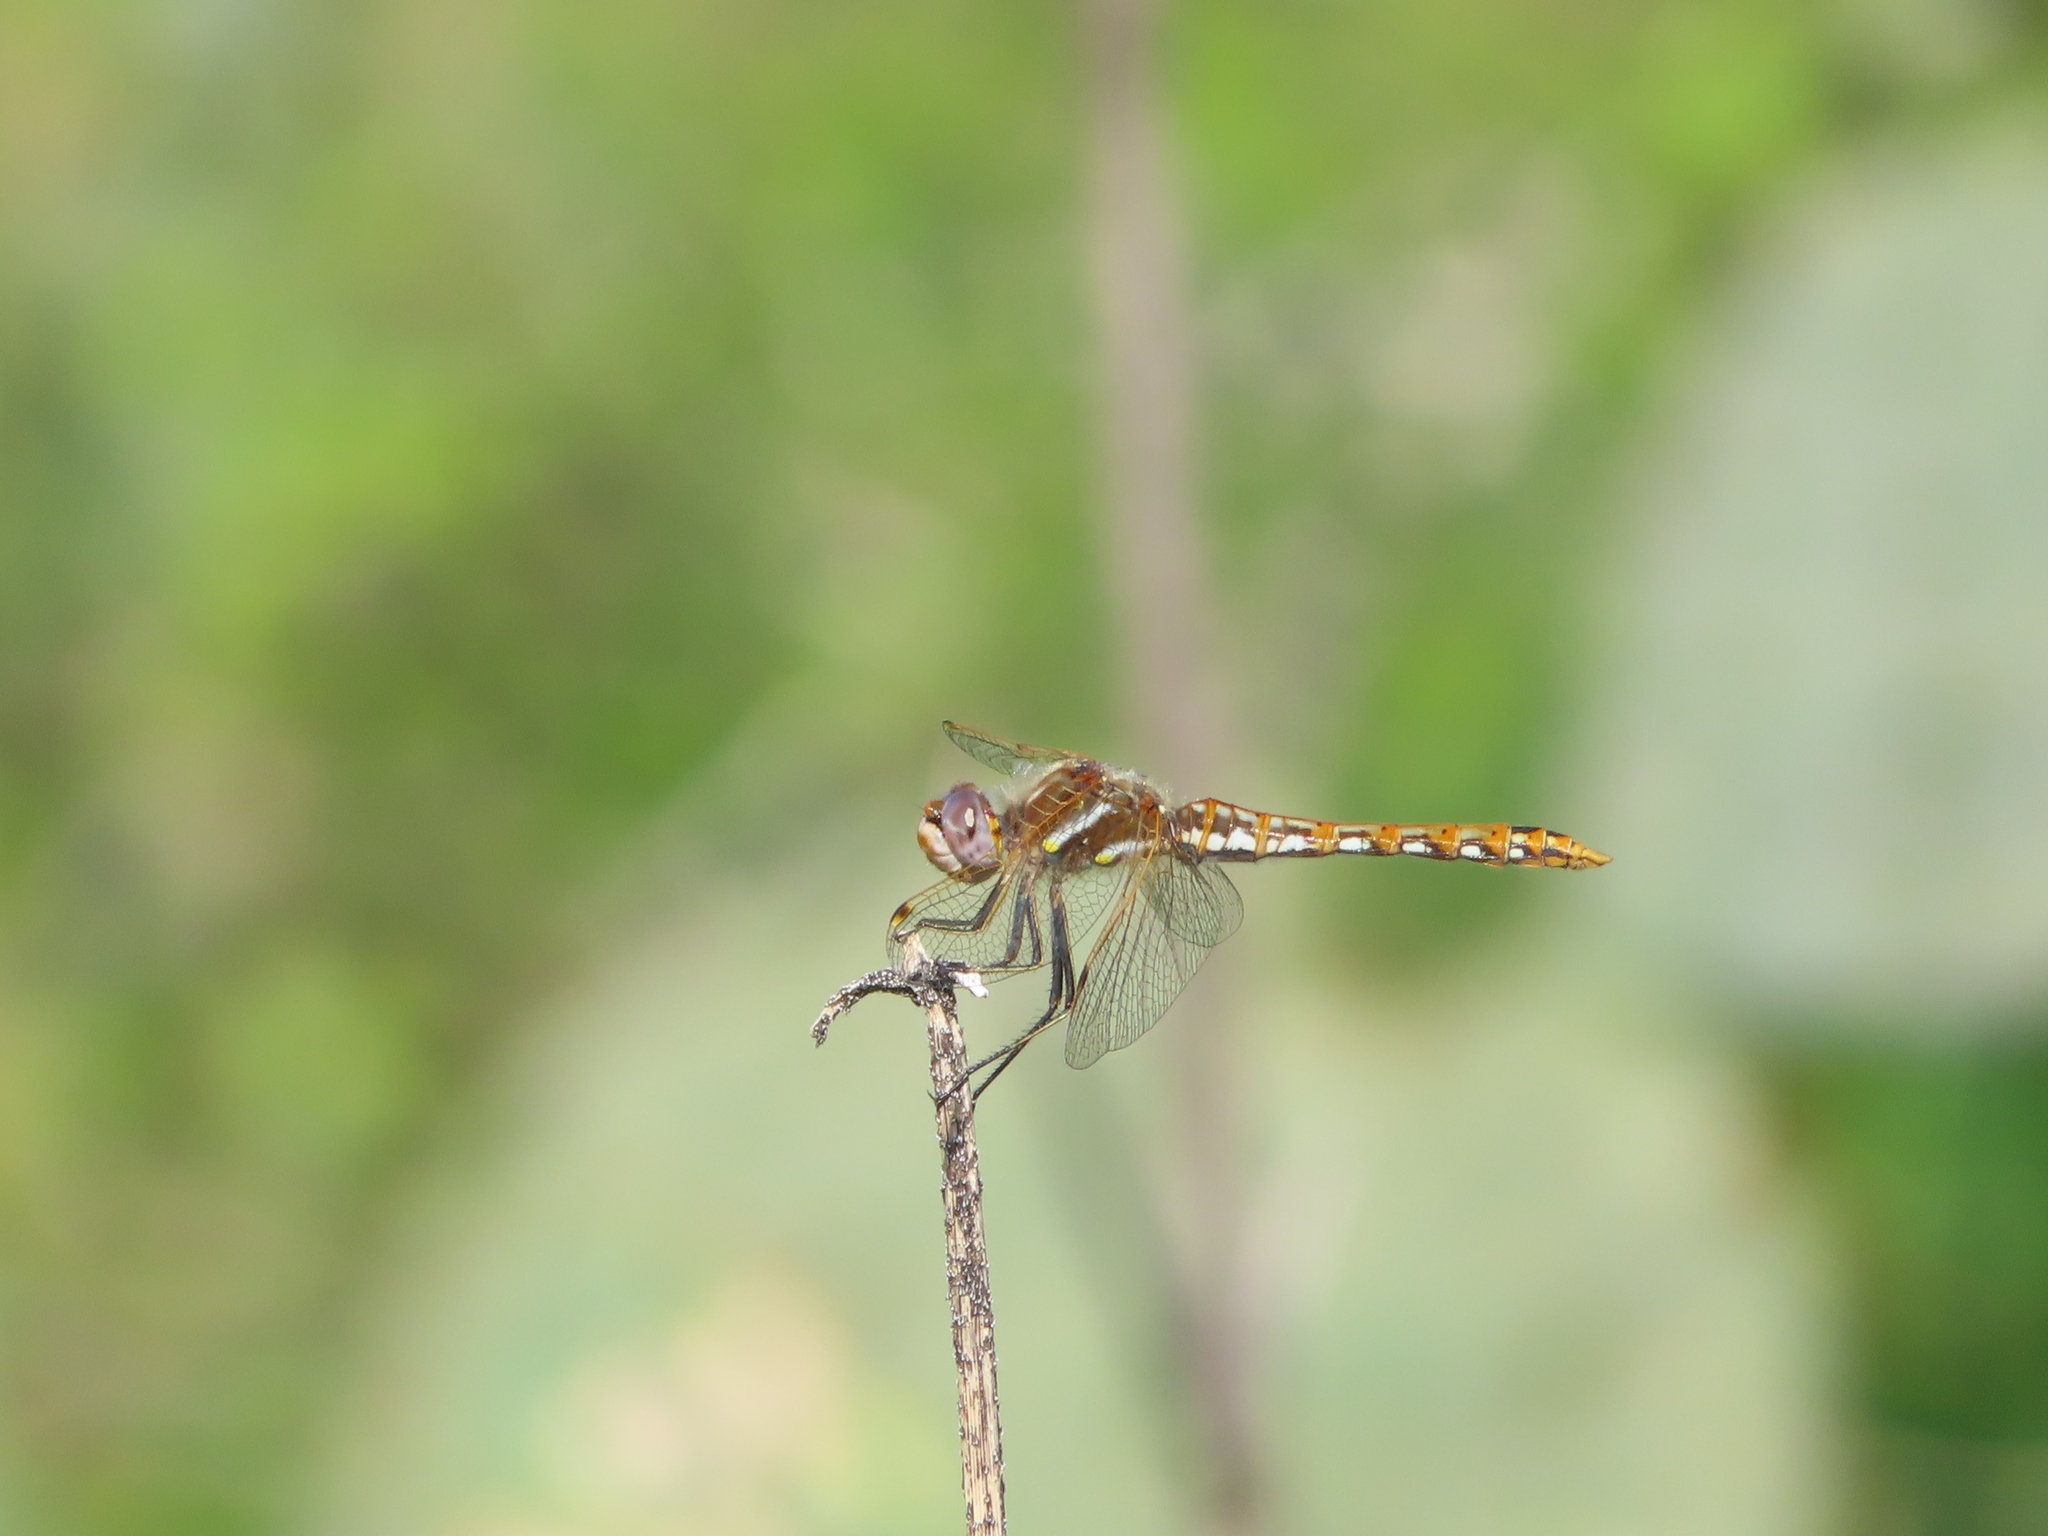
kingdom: Animalia
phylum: Arthropoda
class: Insecta
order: Odonata
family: Libellulidae
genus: Sympetrum
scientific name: Sympetrum corruptum
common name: Variegated meadowhawk
